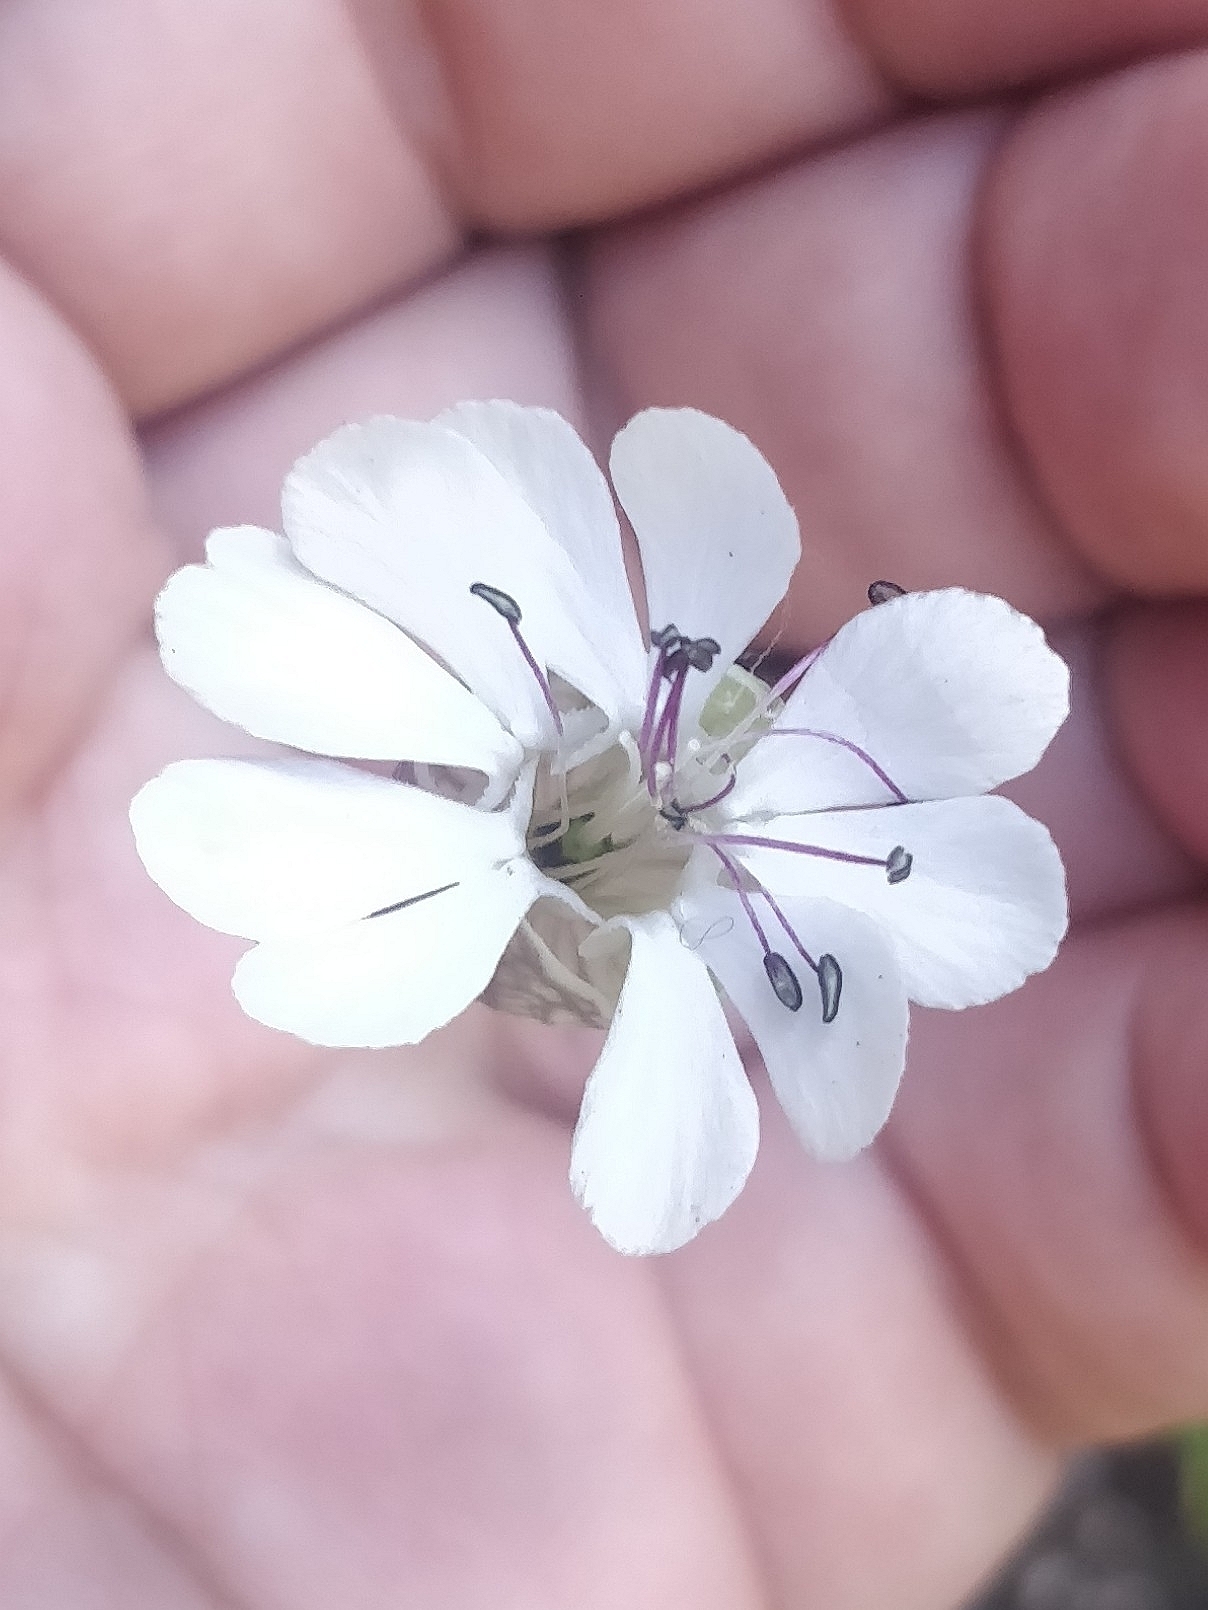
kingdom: Plantae
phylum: Tracheophyta
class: Magnoliopsida
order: Caryophyllales
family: Caryophyllaceae
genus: Silene
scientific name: Silene uniflora
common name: Sea campion
